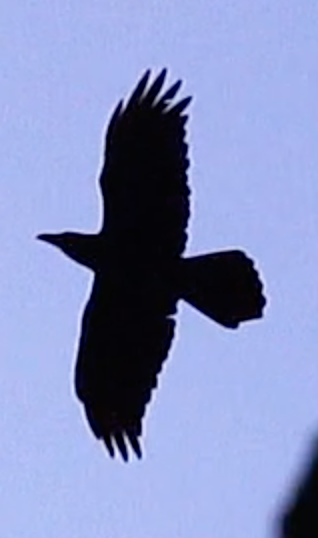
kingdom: Animalia
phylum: Chordata
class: Aves
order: Passeriformes
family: Corvidae
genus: Corvus
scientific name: Corvus corax
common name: Common raven
